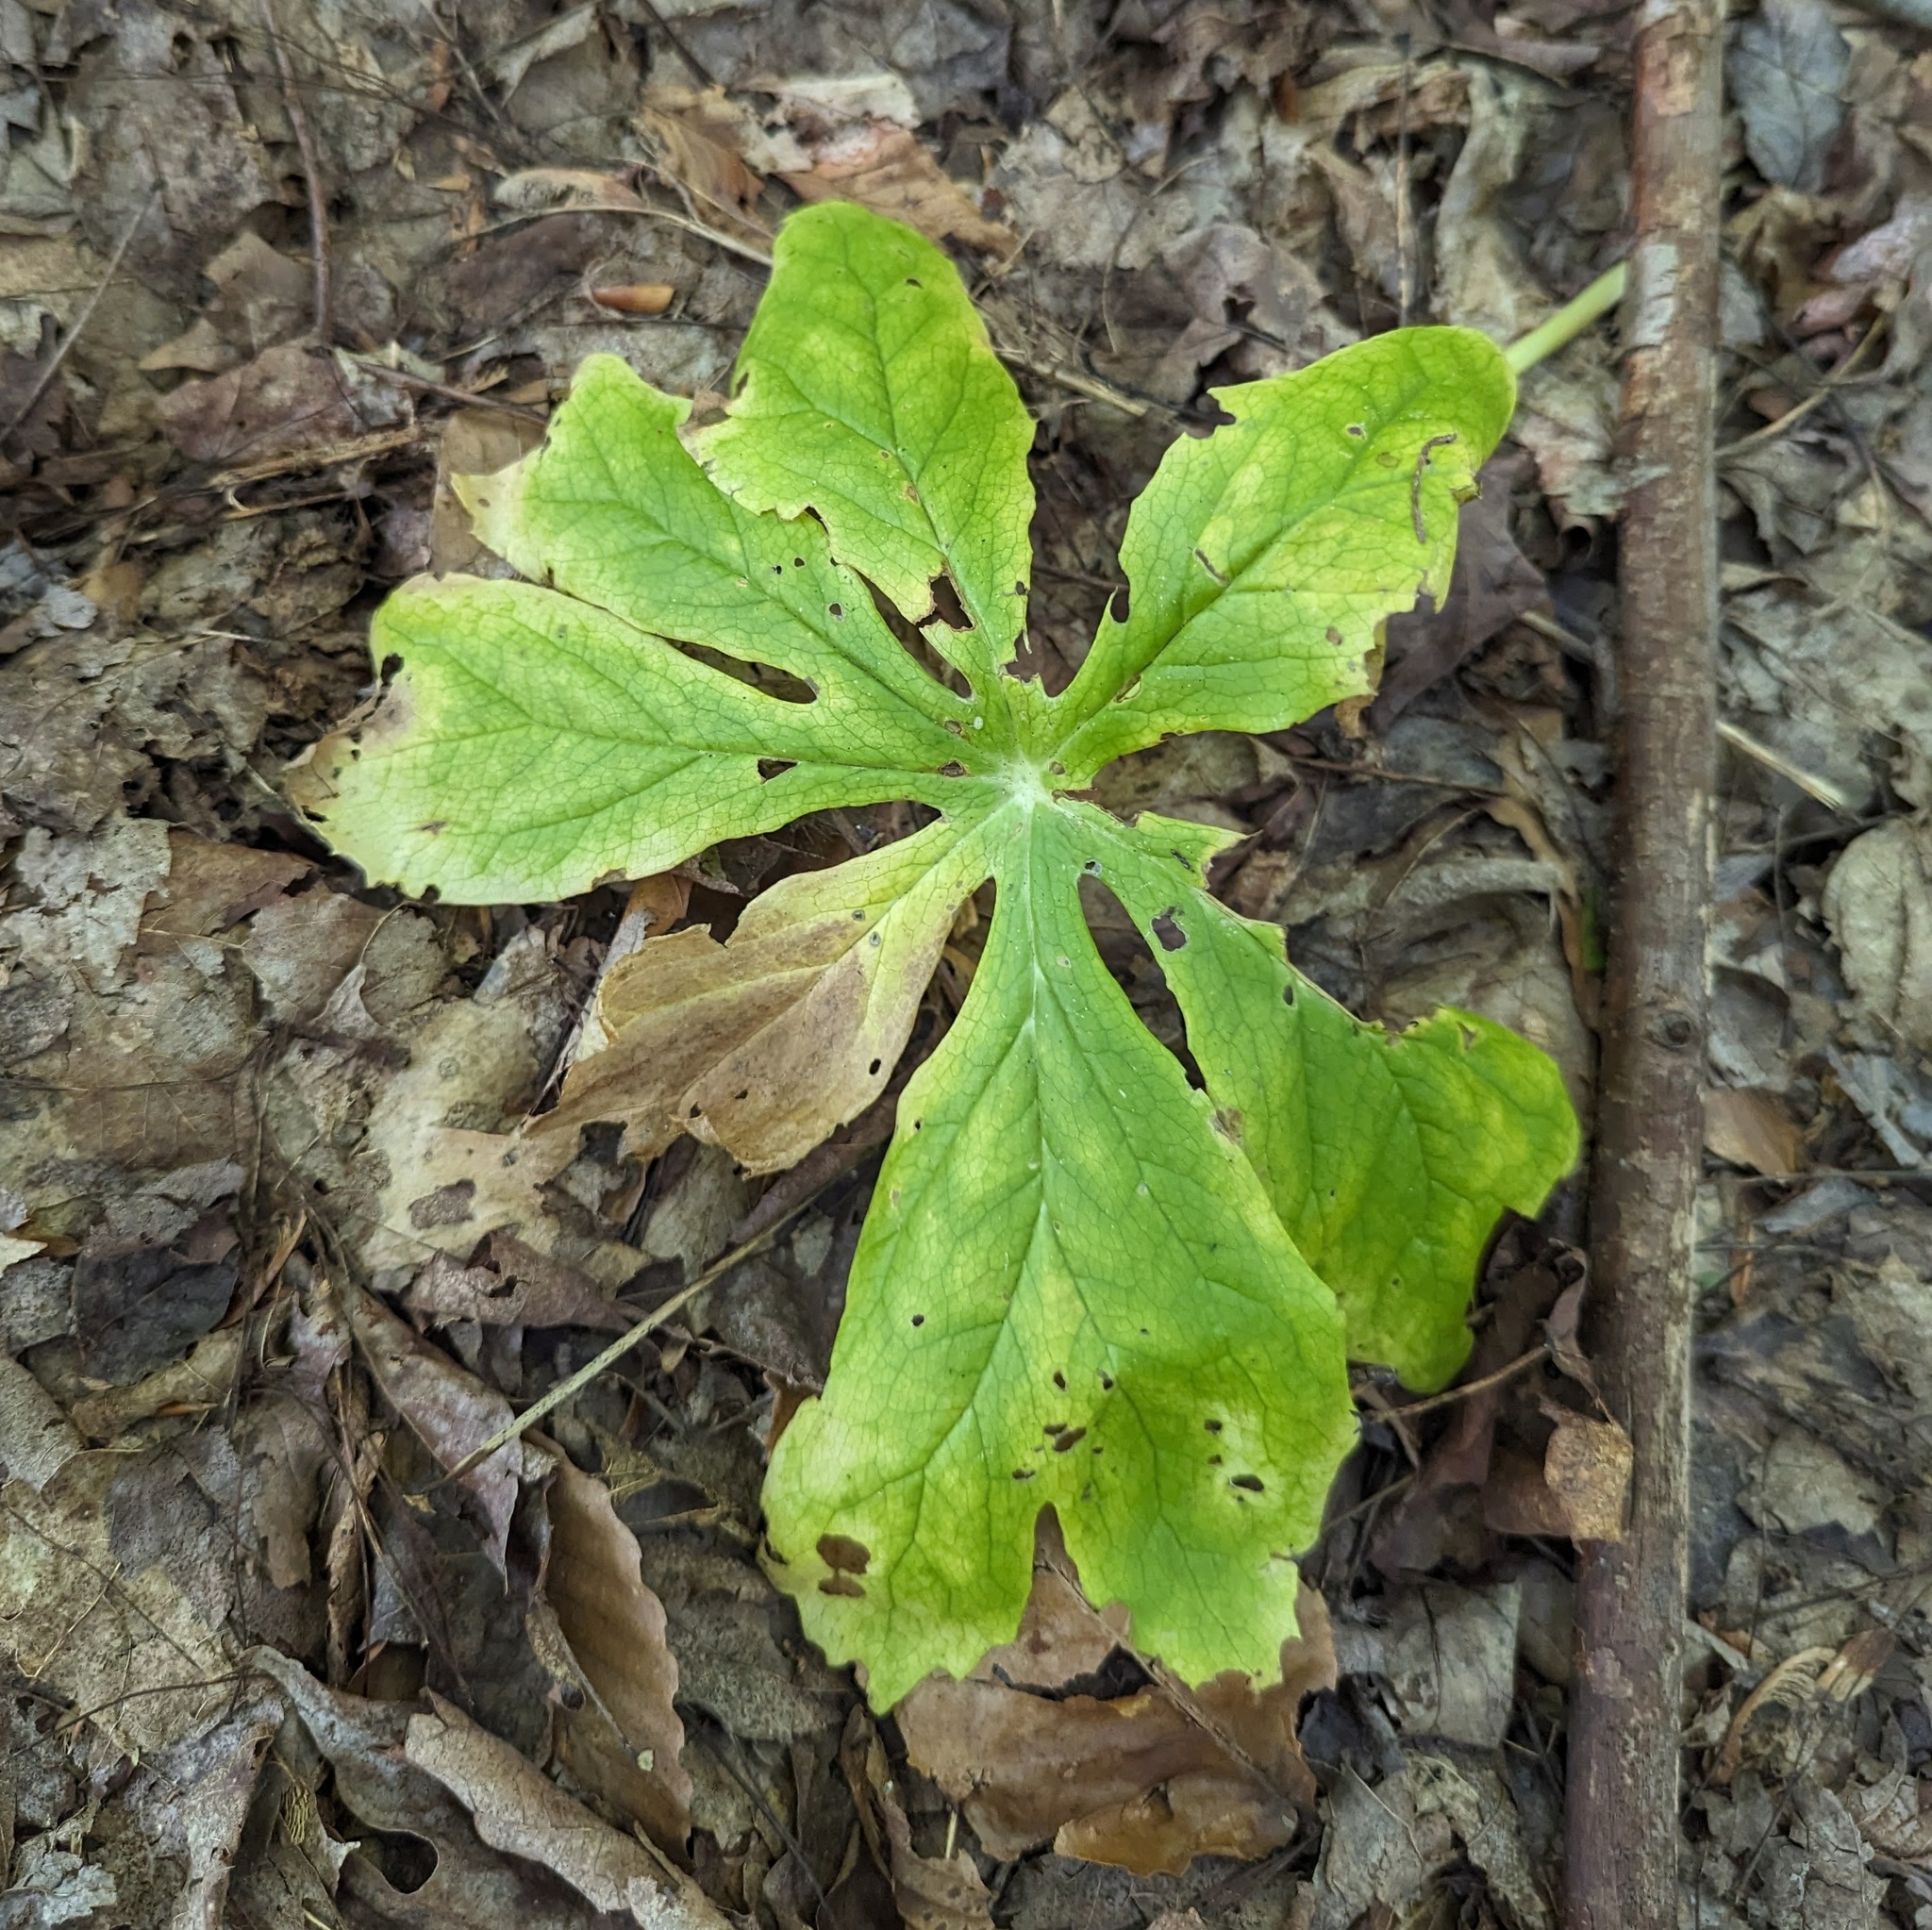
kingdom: Plantae
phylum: Tracheophyta
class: Magnoliopsida
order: Ranunculales
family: Berberidaceae
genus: Podophyllum
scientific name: Podophyllum peltatum
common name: Wild mandrake
